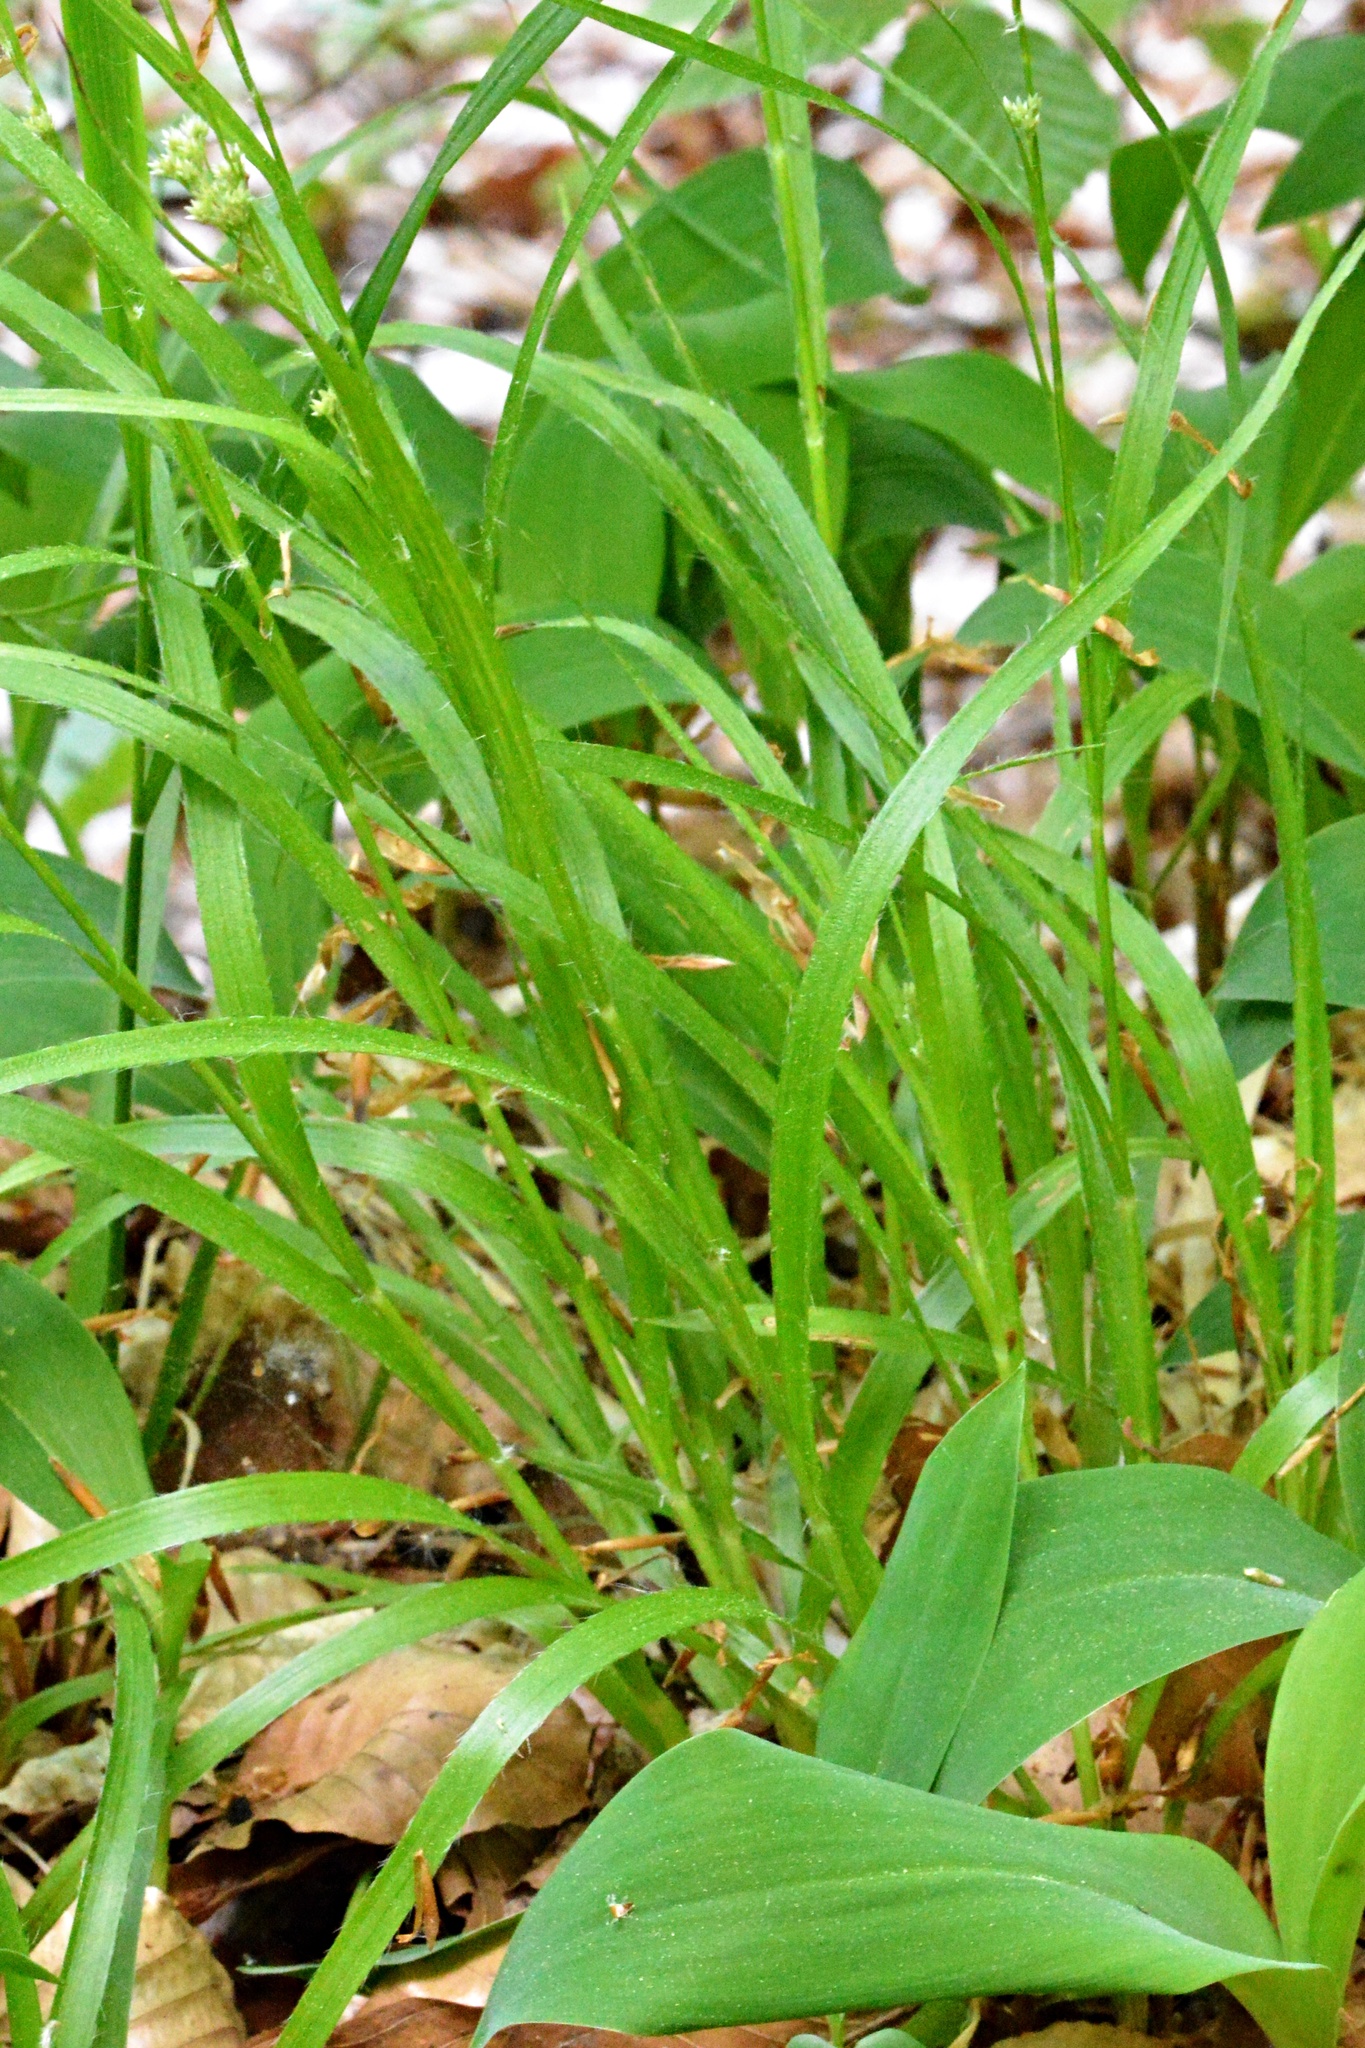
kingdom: Plantae
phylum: Tracheophyta
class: Liliopsida
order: Poales
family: Juncaceae
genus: Luzula
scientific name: Luzula luzuloides
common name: White wood-rush
